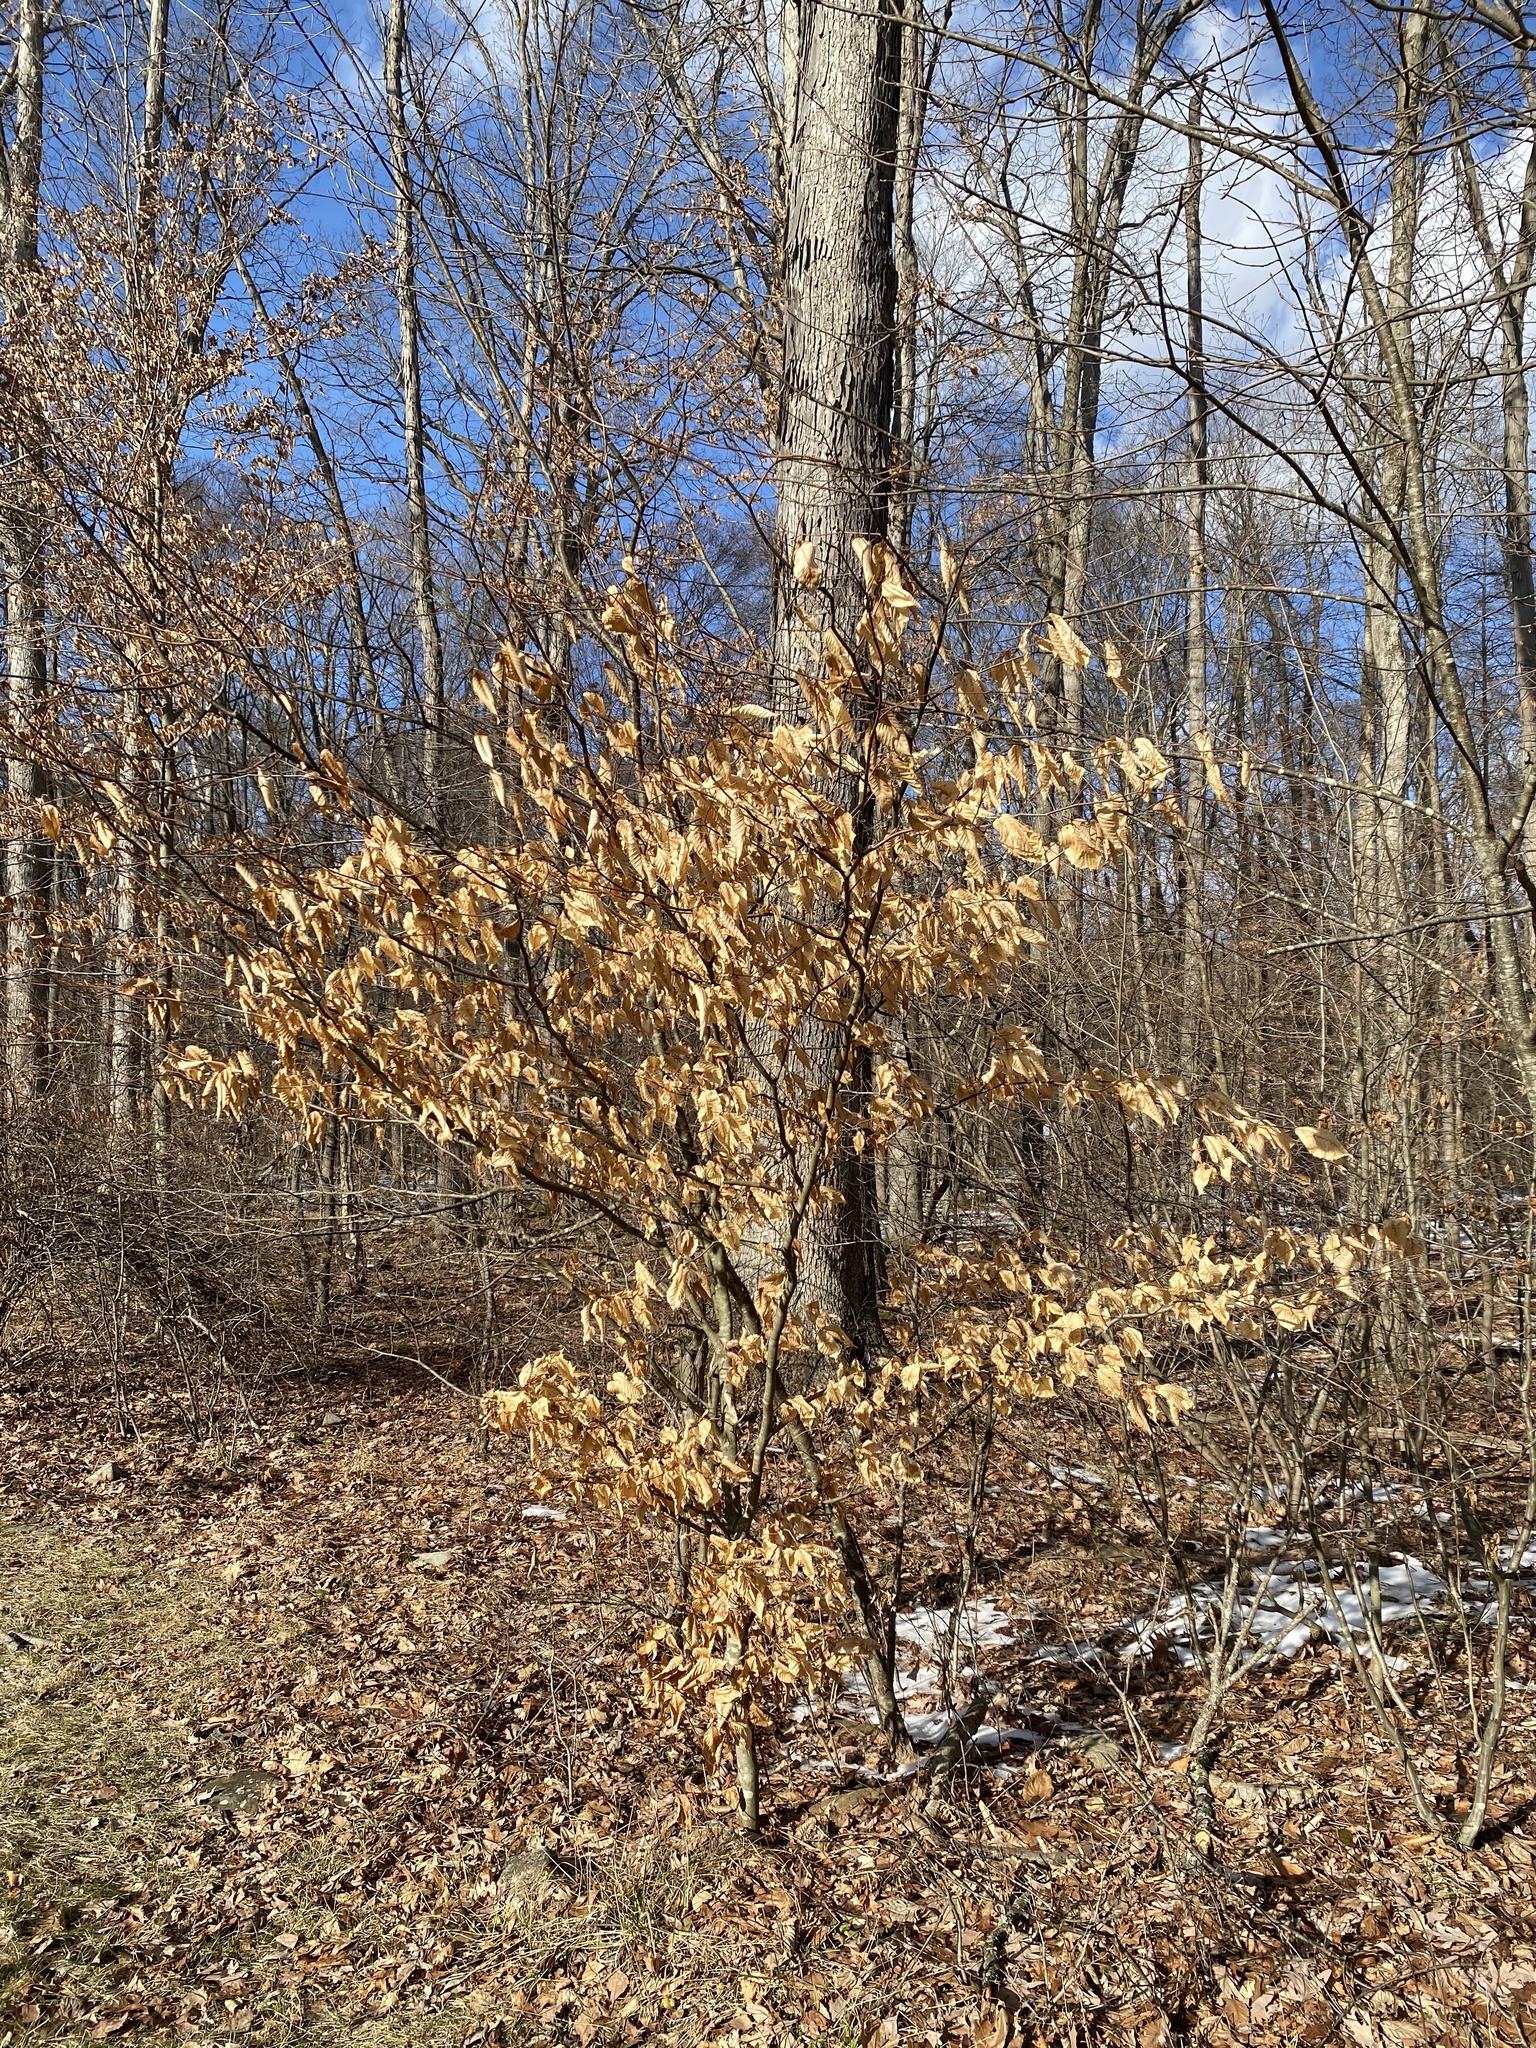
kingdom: Plantae
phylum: Tracheophyta
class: Magnoliopsida
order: Fagales
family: Fagaceae
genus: Fagus
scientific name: Fagus grandifolia
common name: American beech
